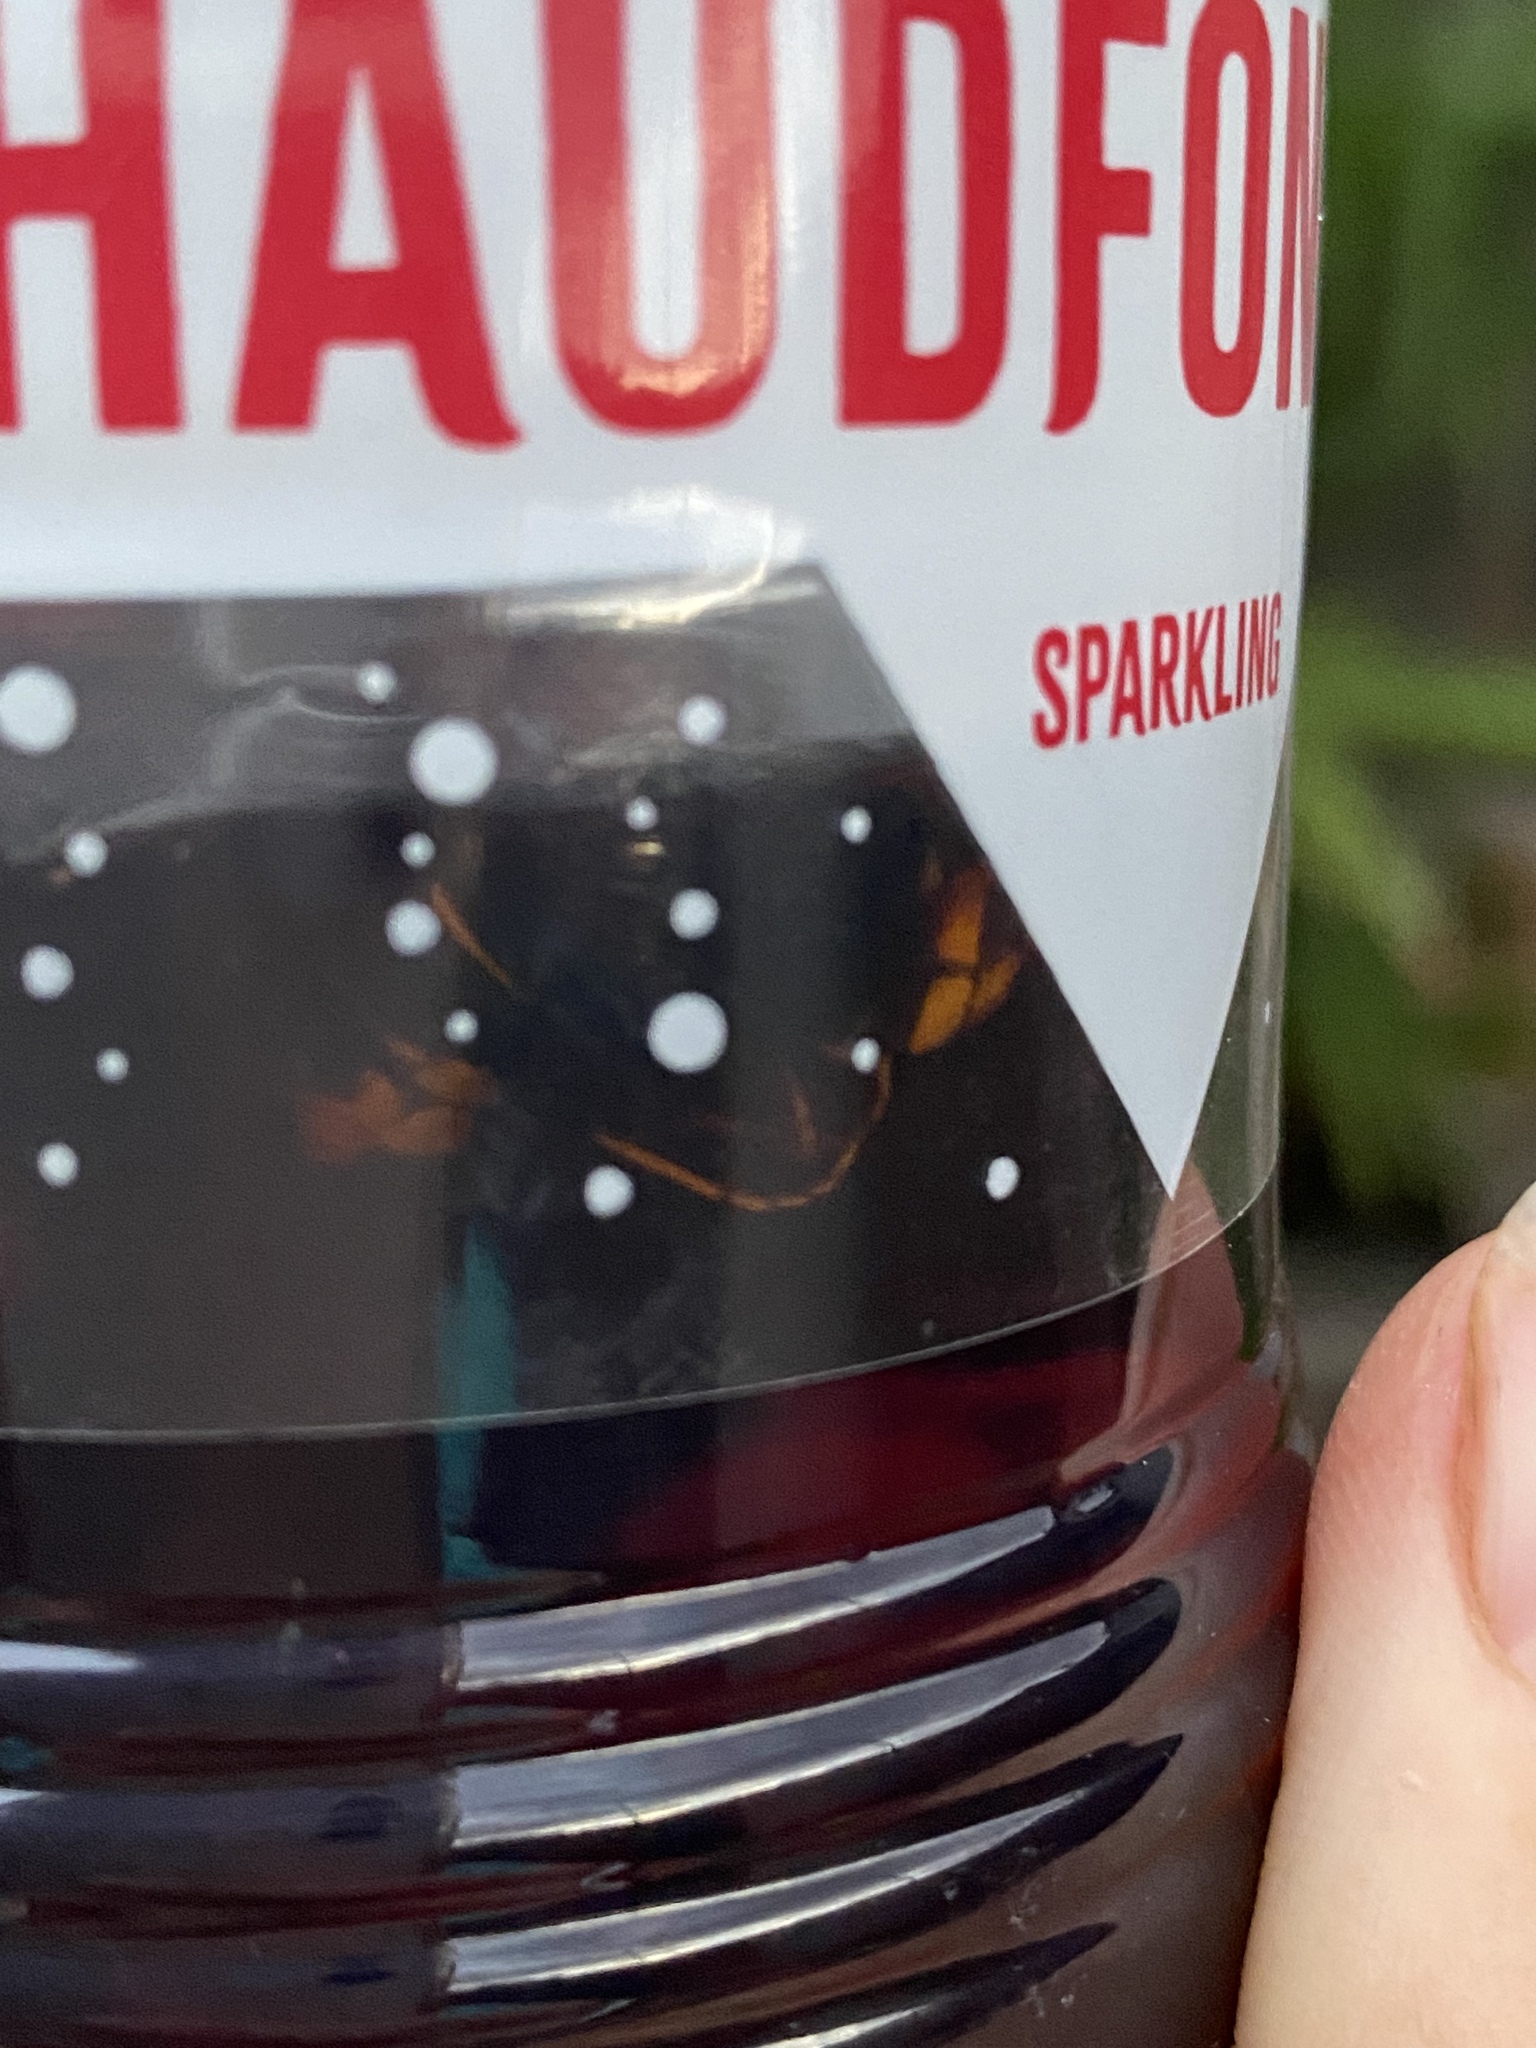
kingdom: Animalia
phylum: Arthropoda
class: Insecta
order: Hymenoptera
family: Vespidae
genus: Vespa
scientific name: Vespa velutina
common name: Asian hornet
